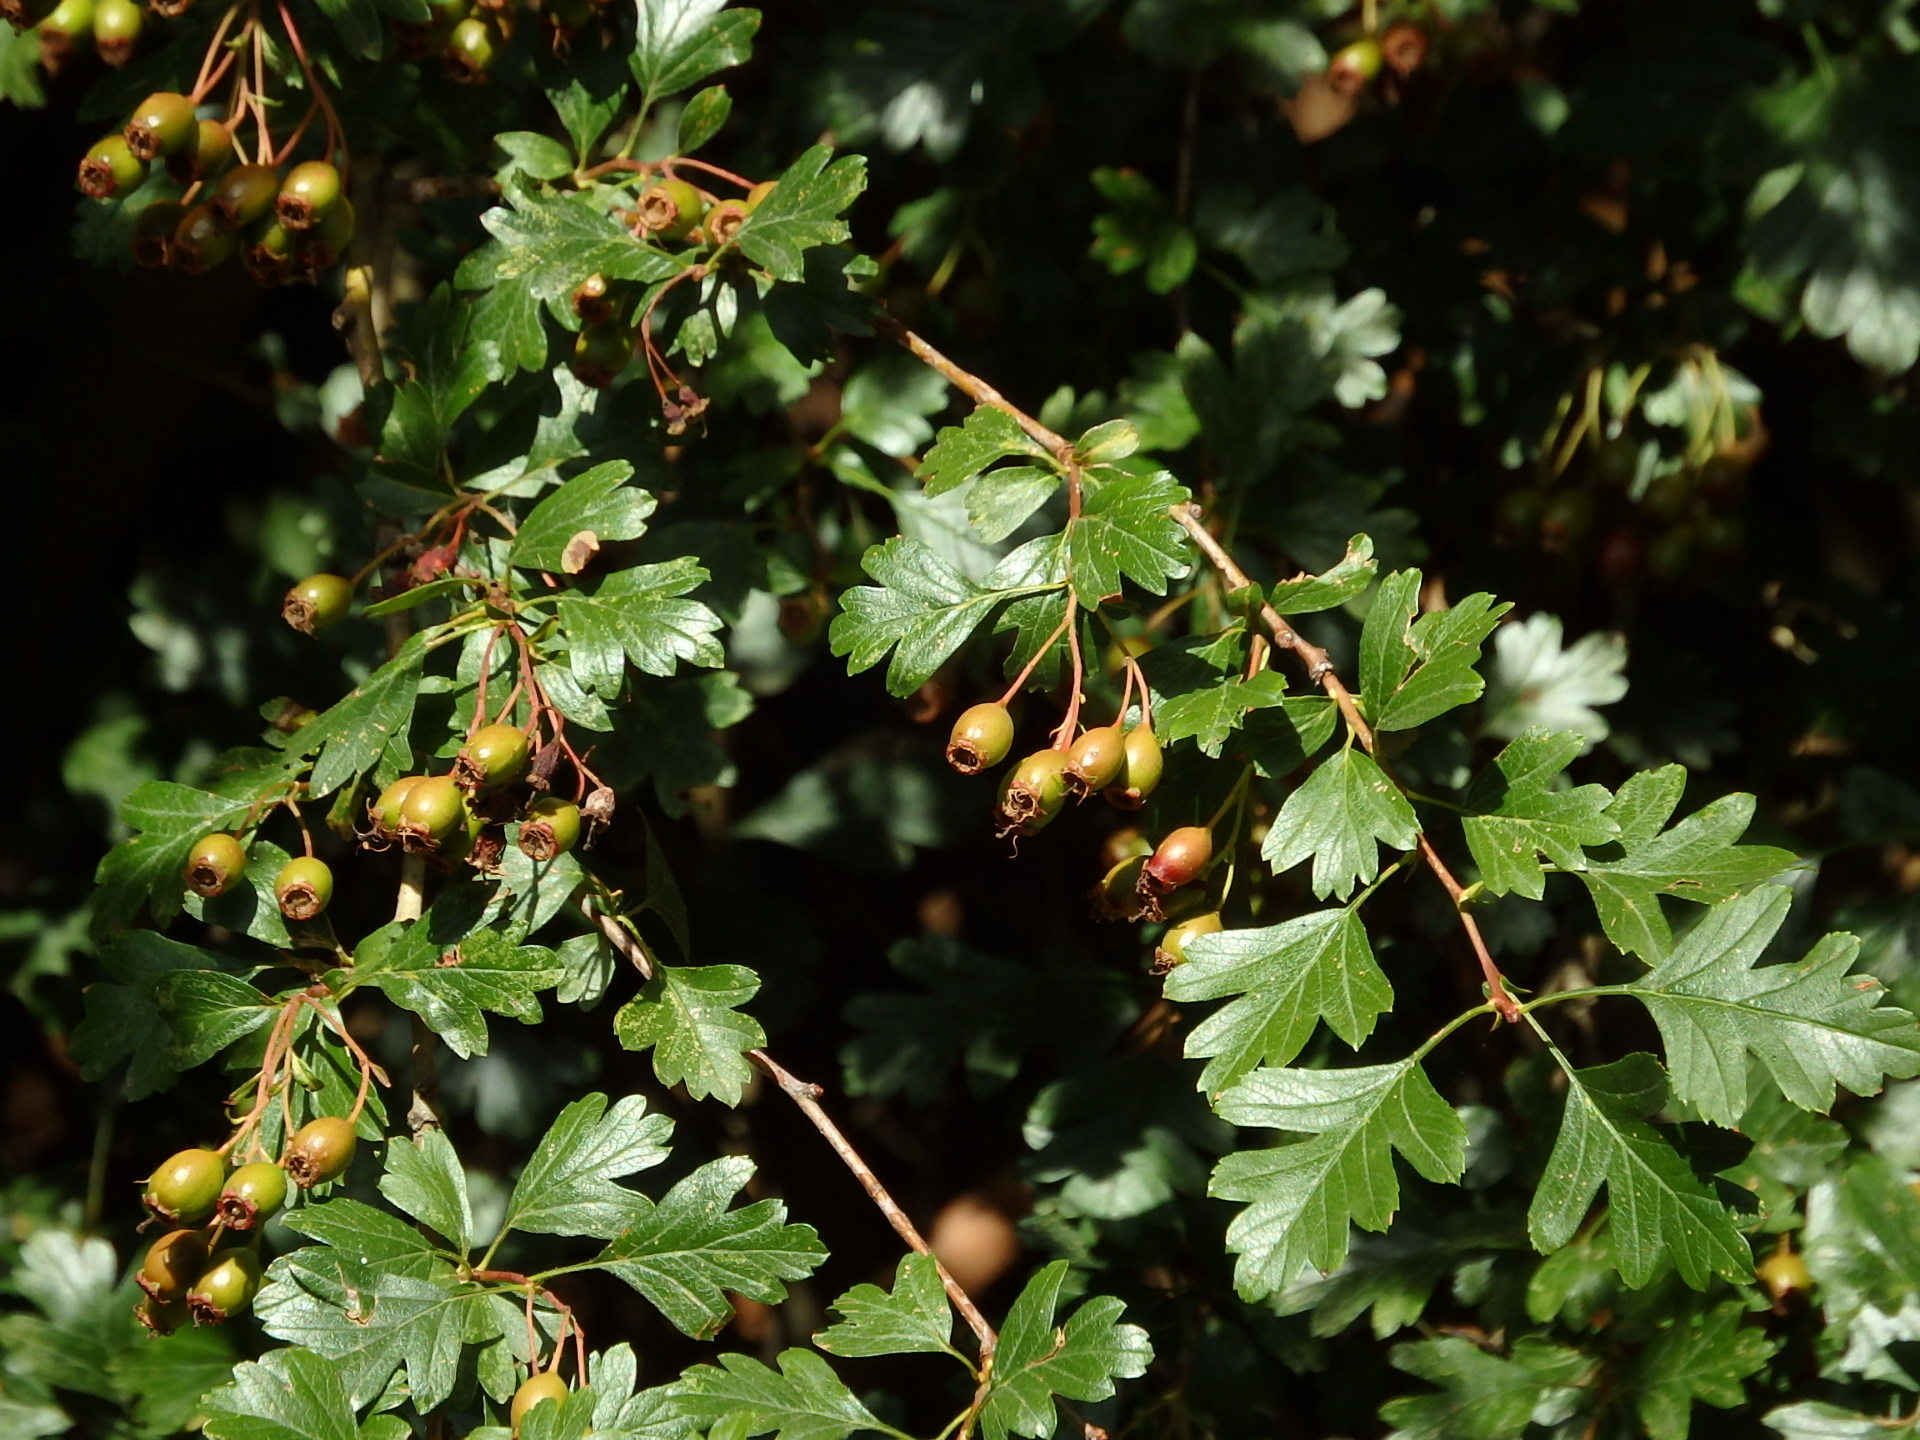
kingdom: Plantae
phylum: Tracheophyta
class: Magnoliopsida
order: Rosales
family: Rosaceae
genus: Crataegus
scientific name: Crataegus monogyna
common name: Hawthorn
